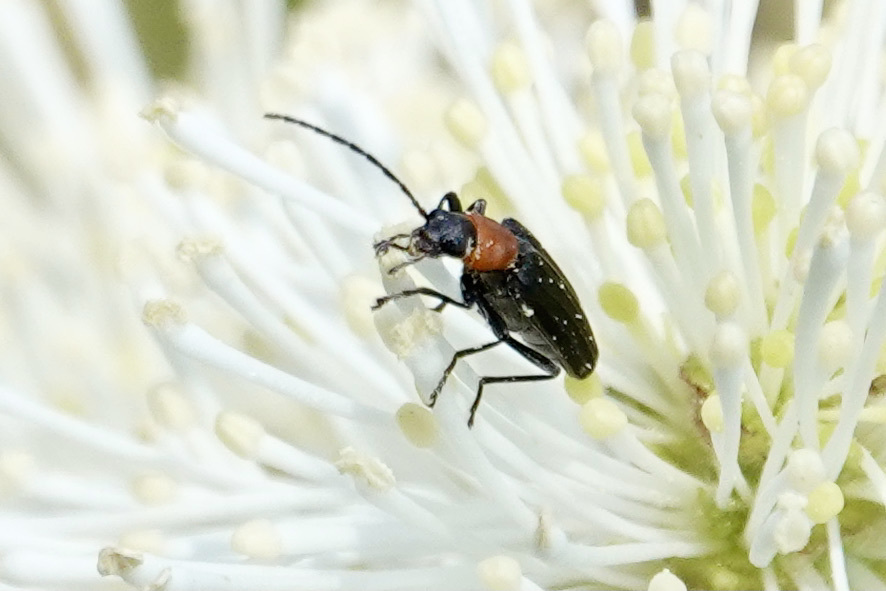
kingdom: Animalia
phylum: Arthropoda
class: Insecta
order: Coleoptera
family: Oedemeridae
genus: Ischnomera
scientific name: Ischnomera
